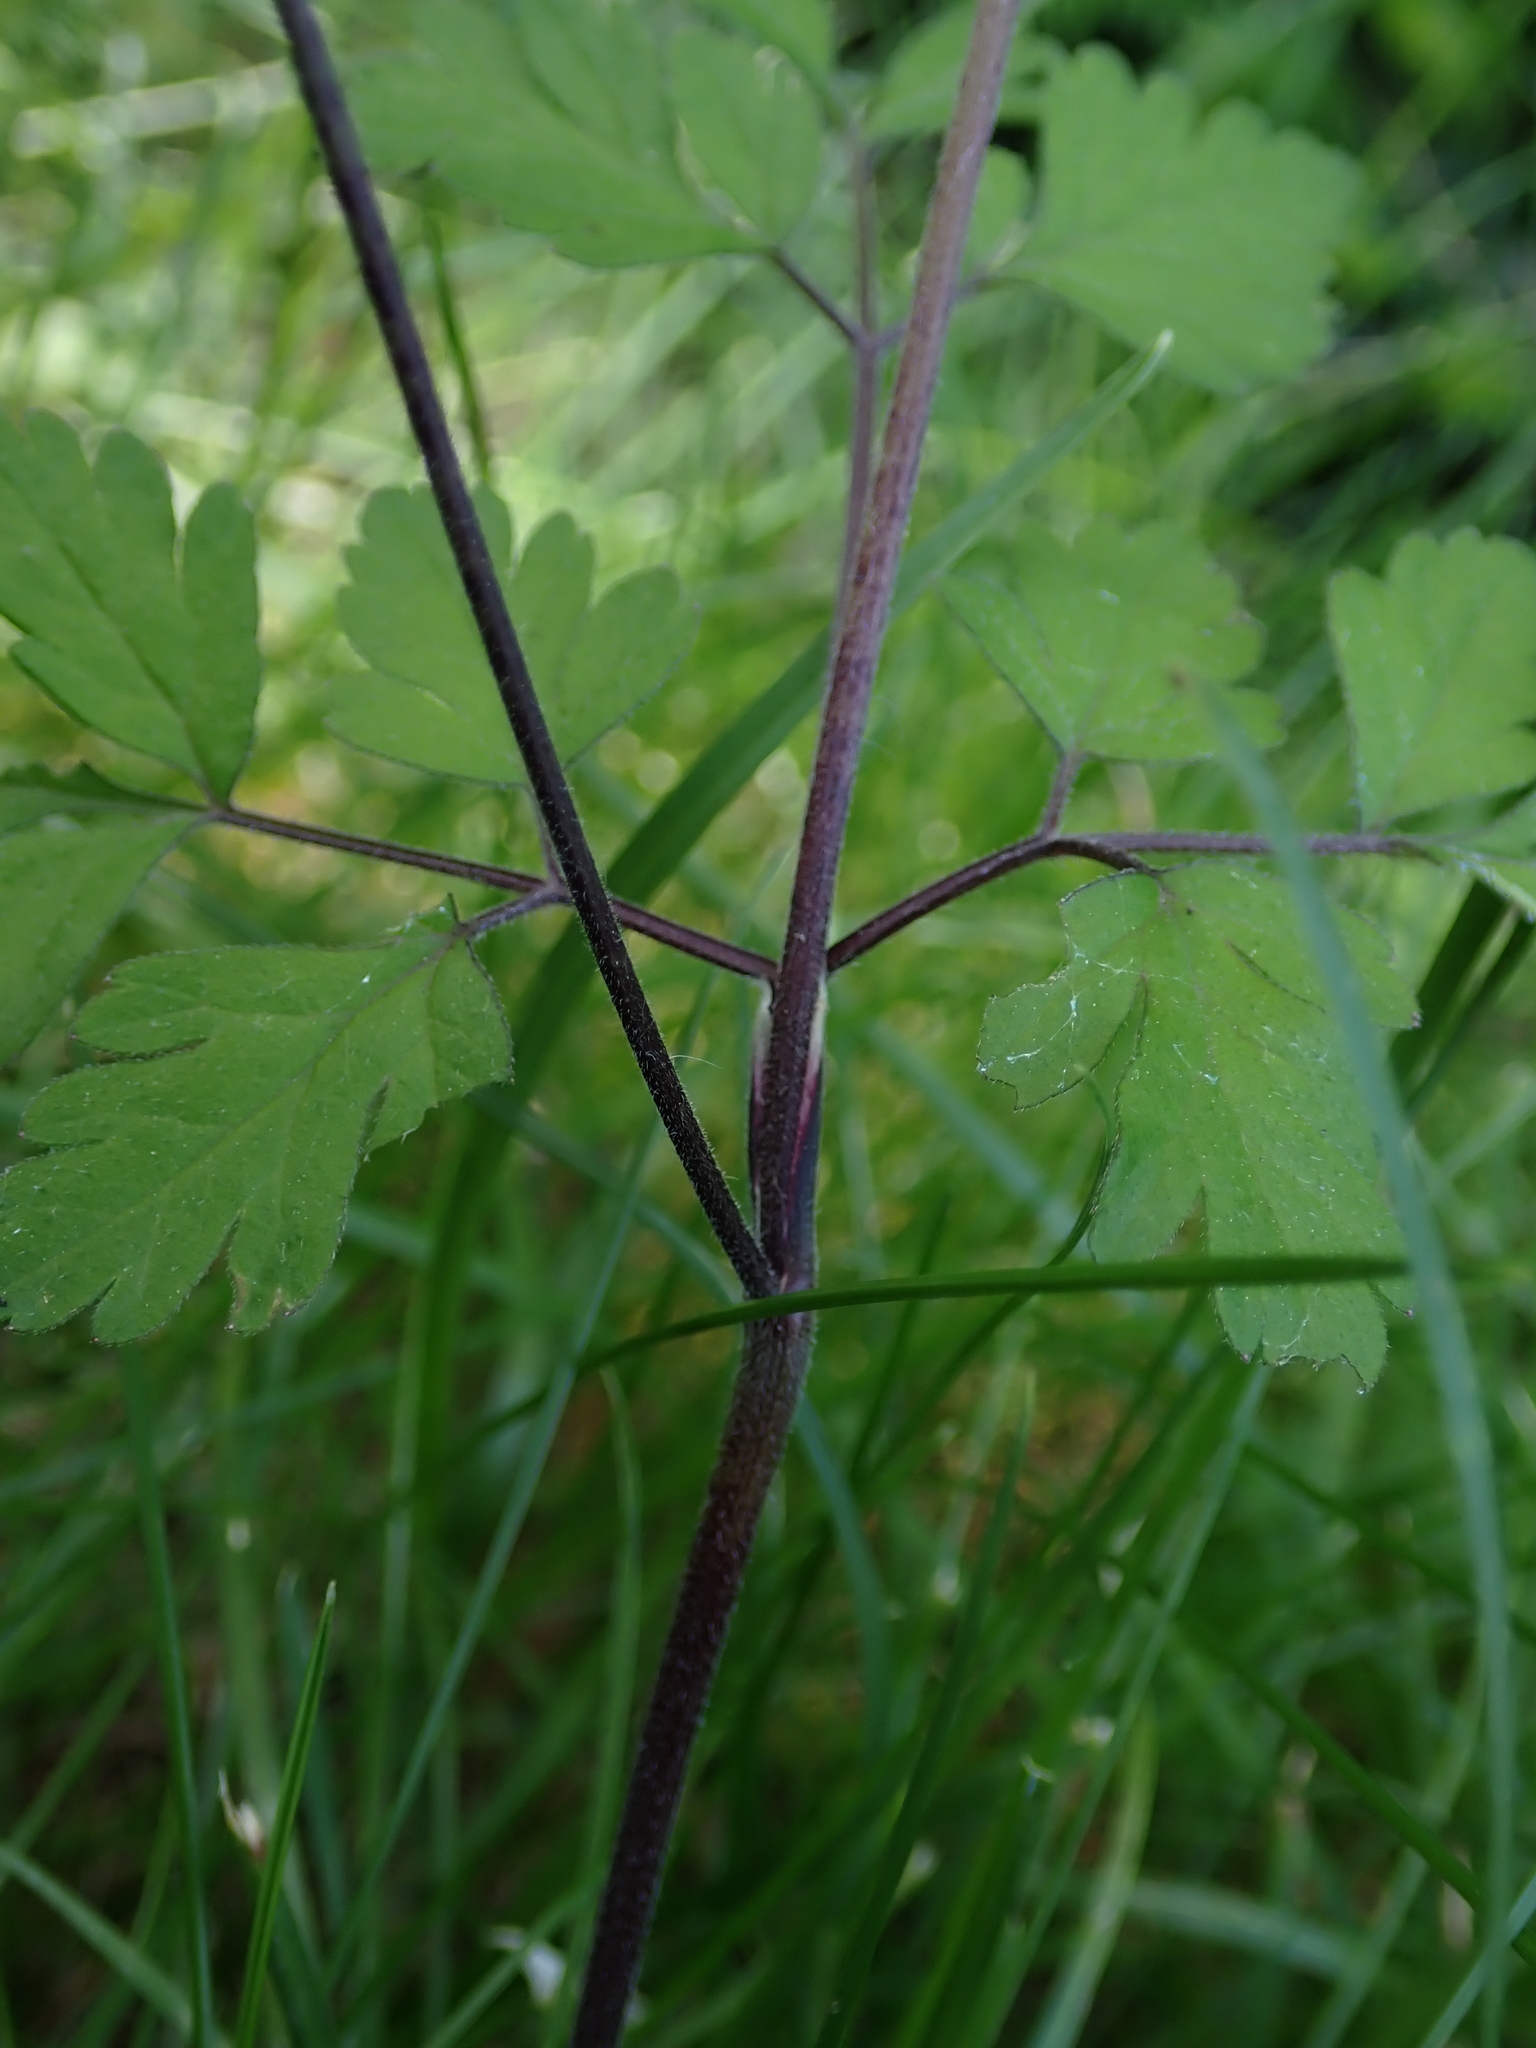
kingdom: Plantae
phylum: Tracheophyta
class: Magnoliopsida
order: Apiales
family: Apiaceae
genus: Chaerophyllum
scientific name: Chaerophyllum temulum
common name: Rough chervil
